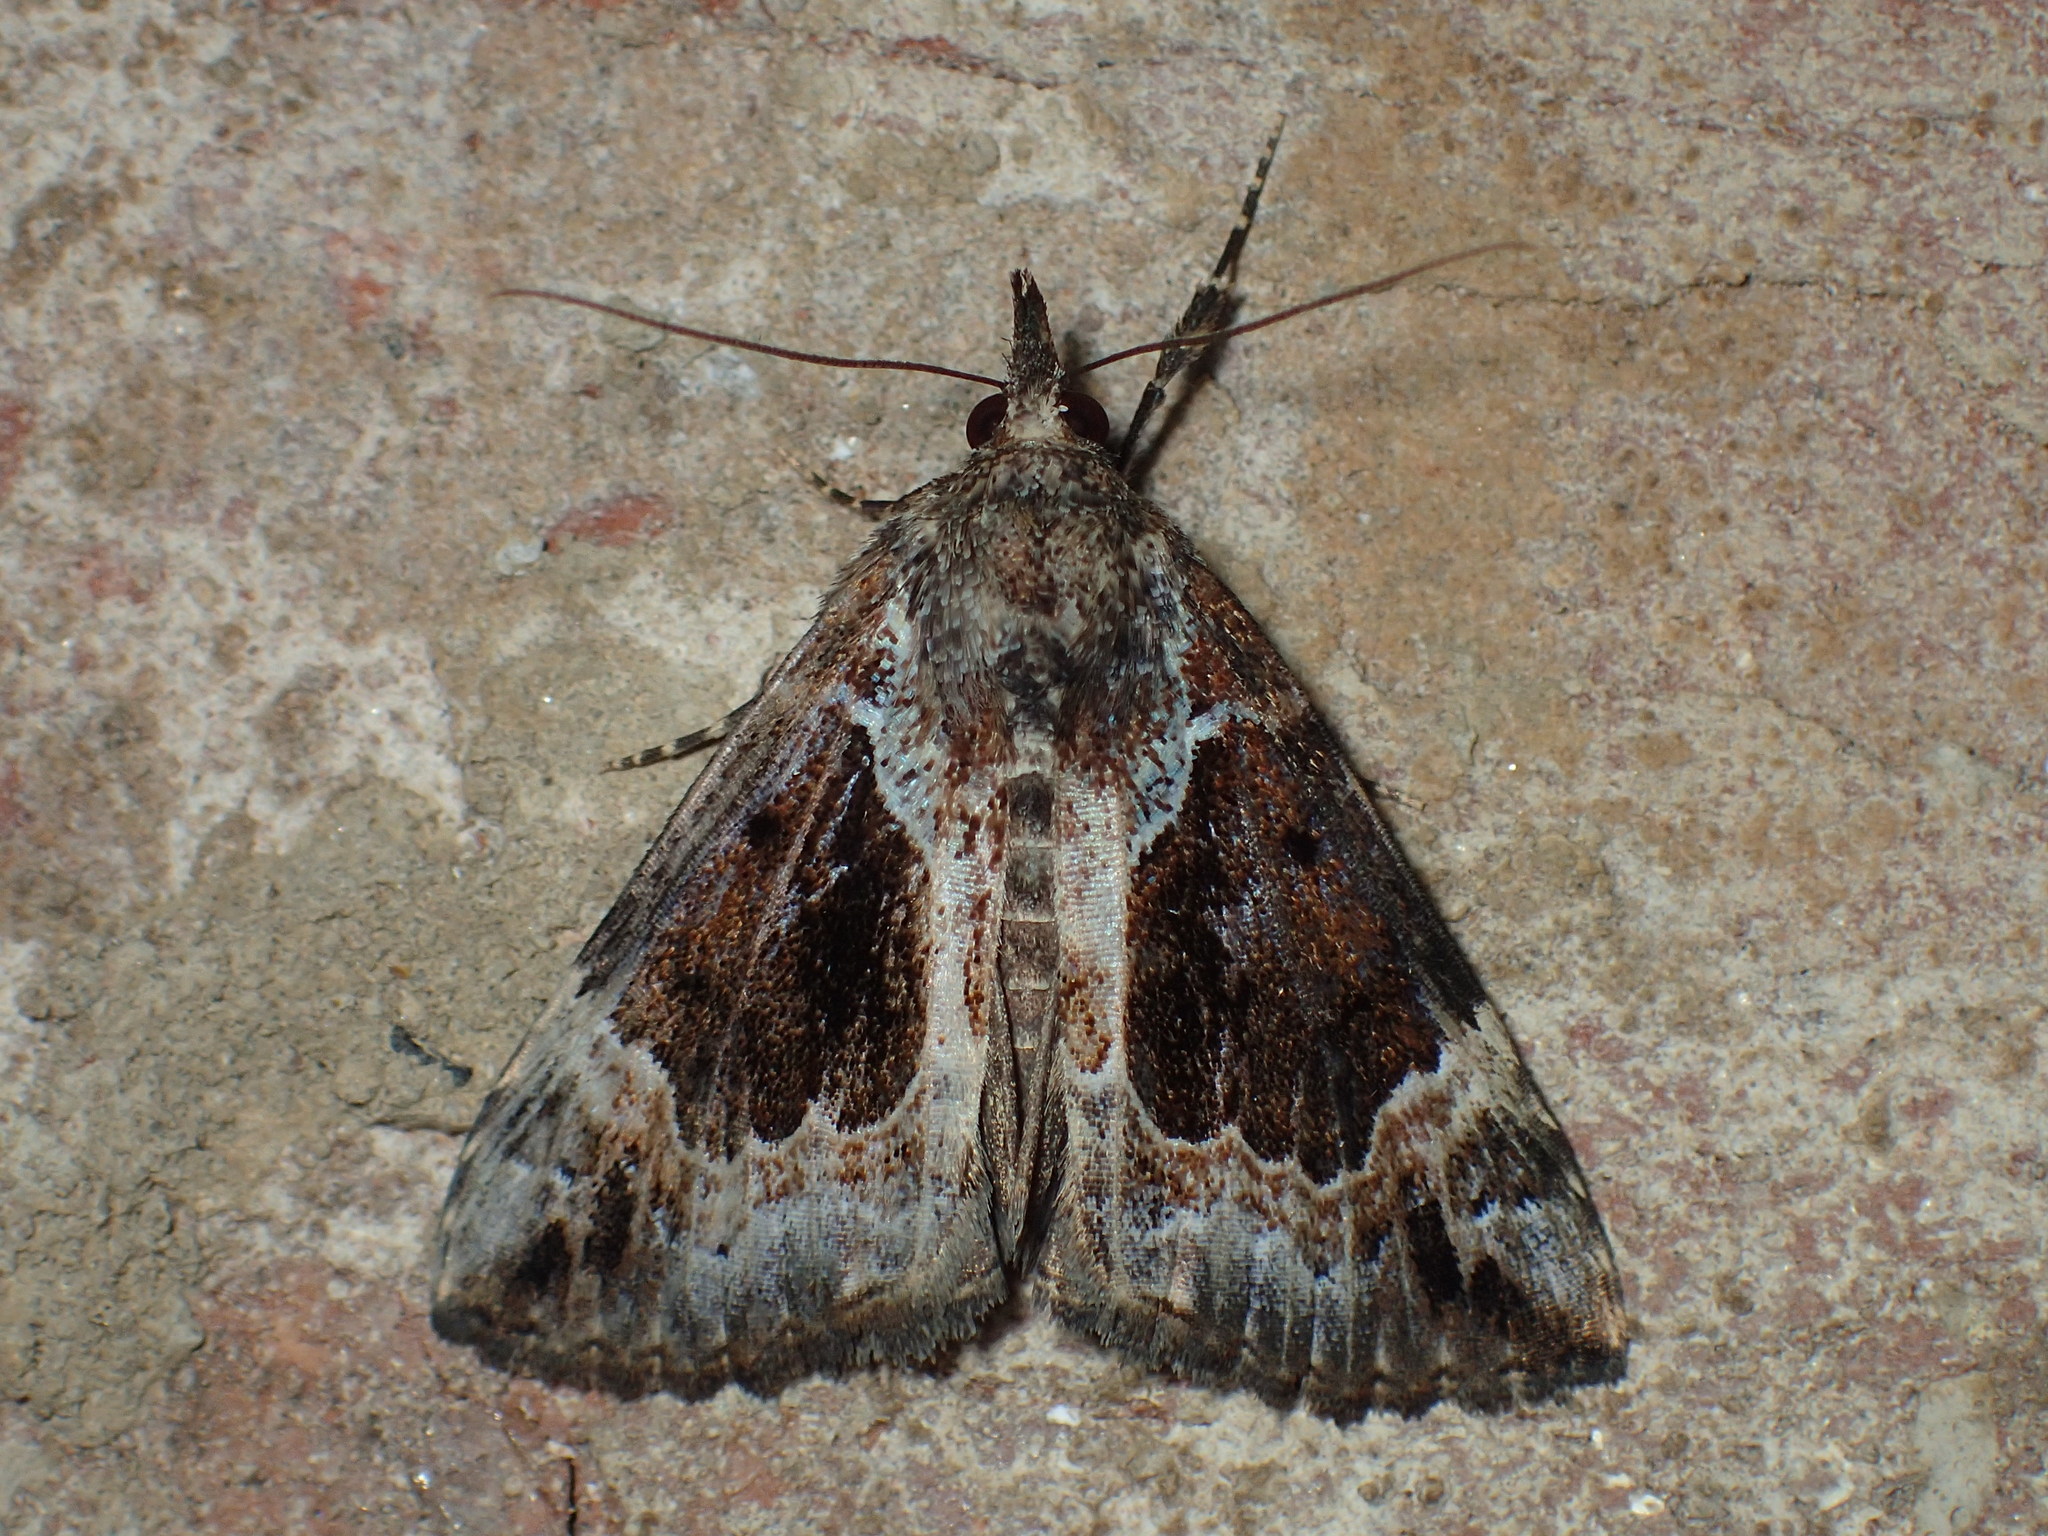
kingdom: Animalia
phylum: Arthropoda
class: Insecta
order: Lepidoptera
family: Erebidae
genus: Hypena
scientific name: Hypena palparia
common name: Mottled bomolocha moth
